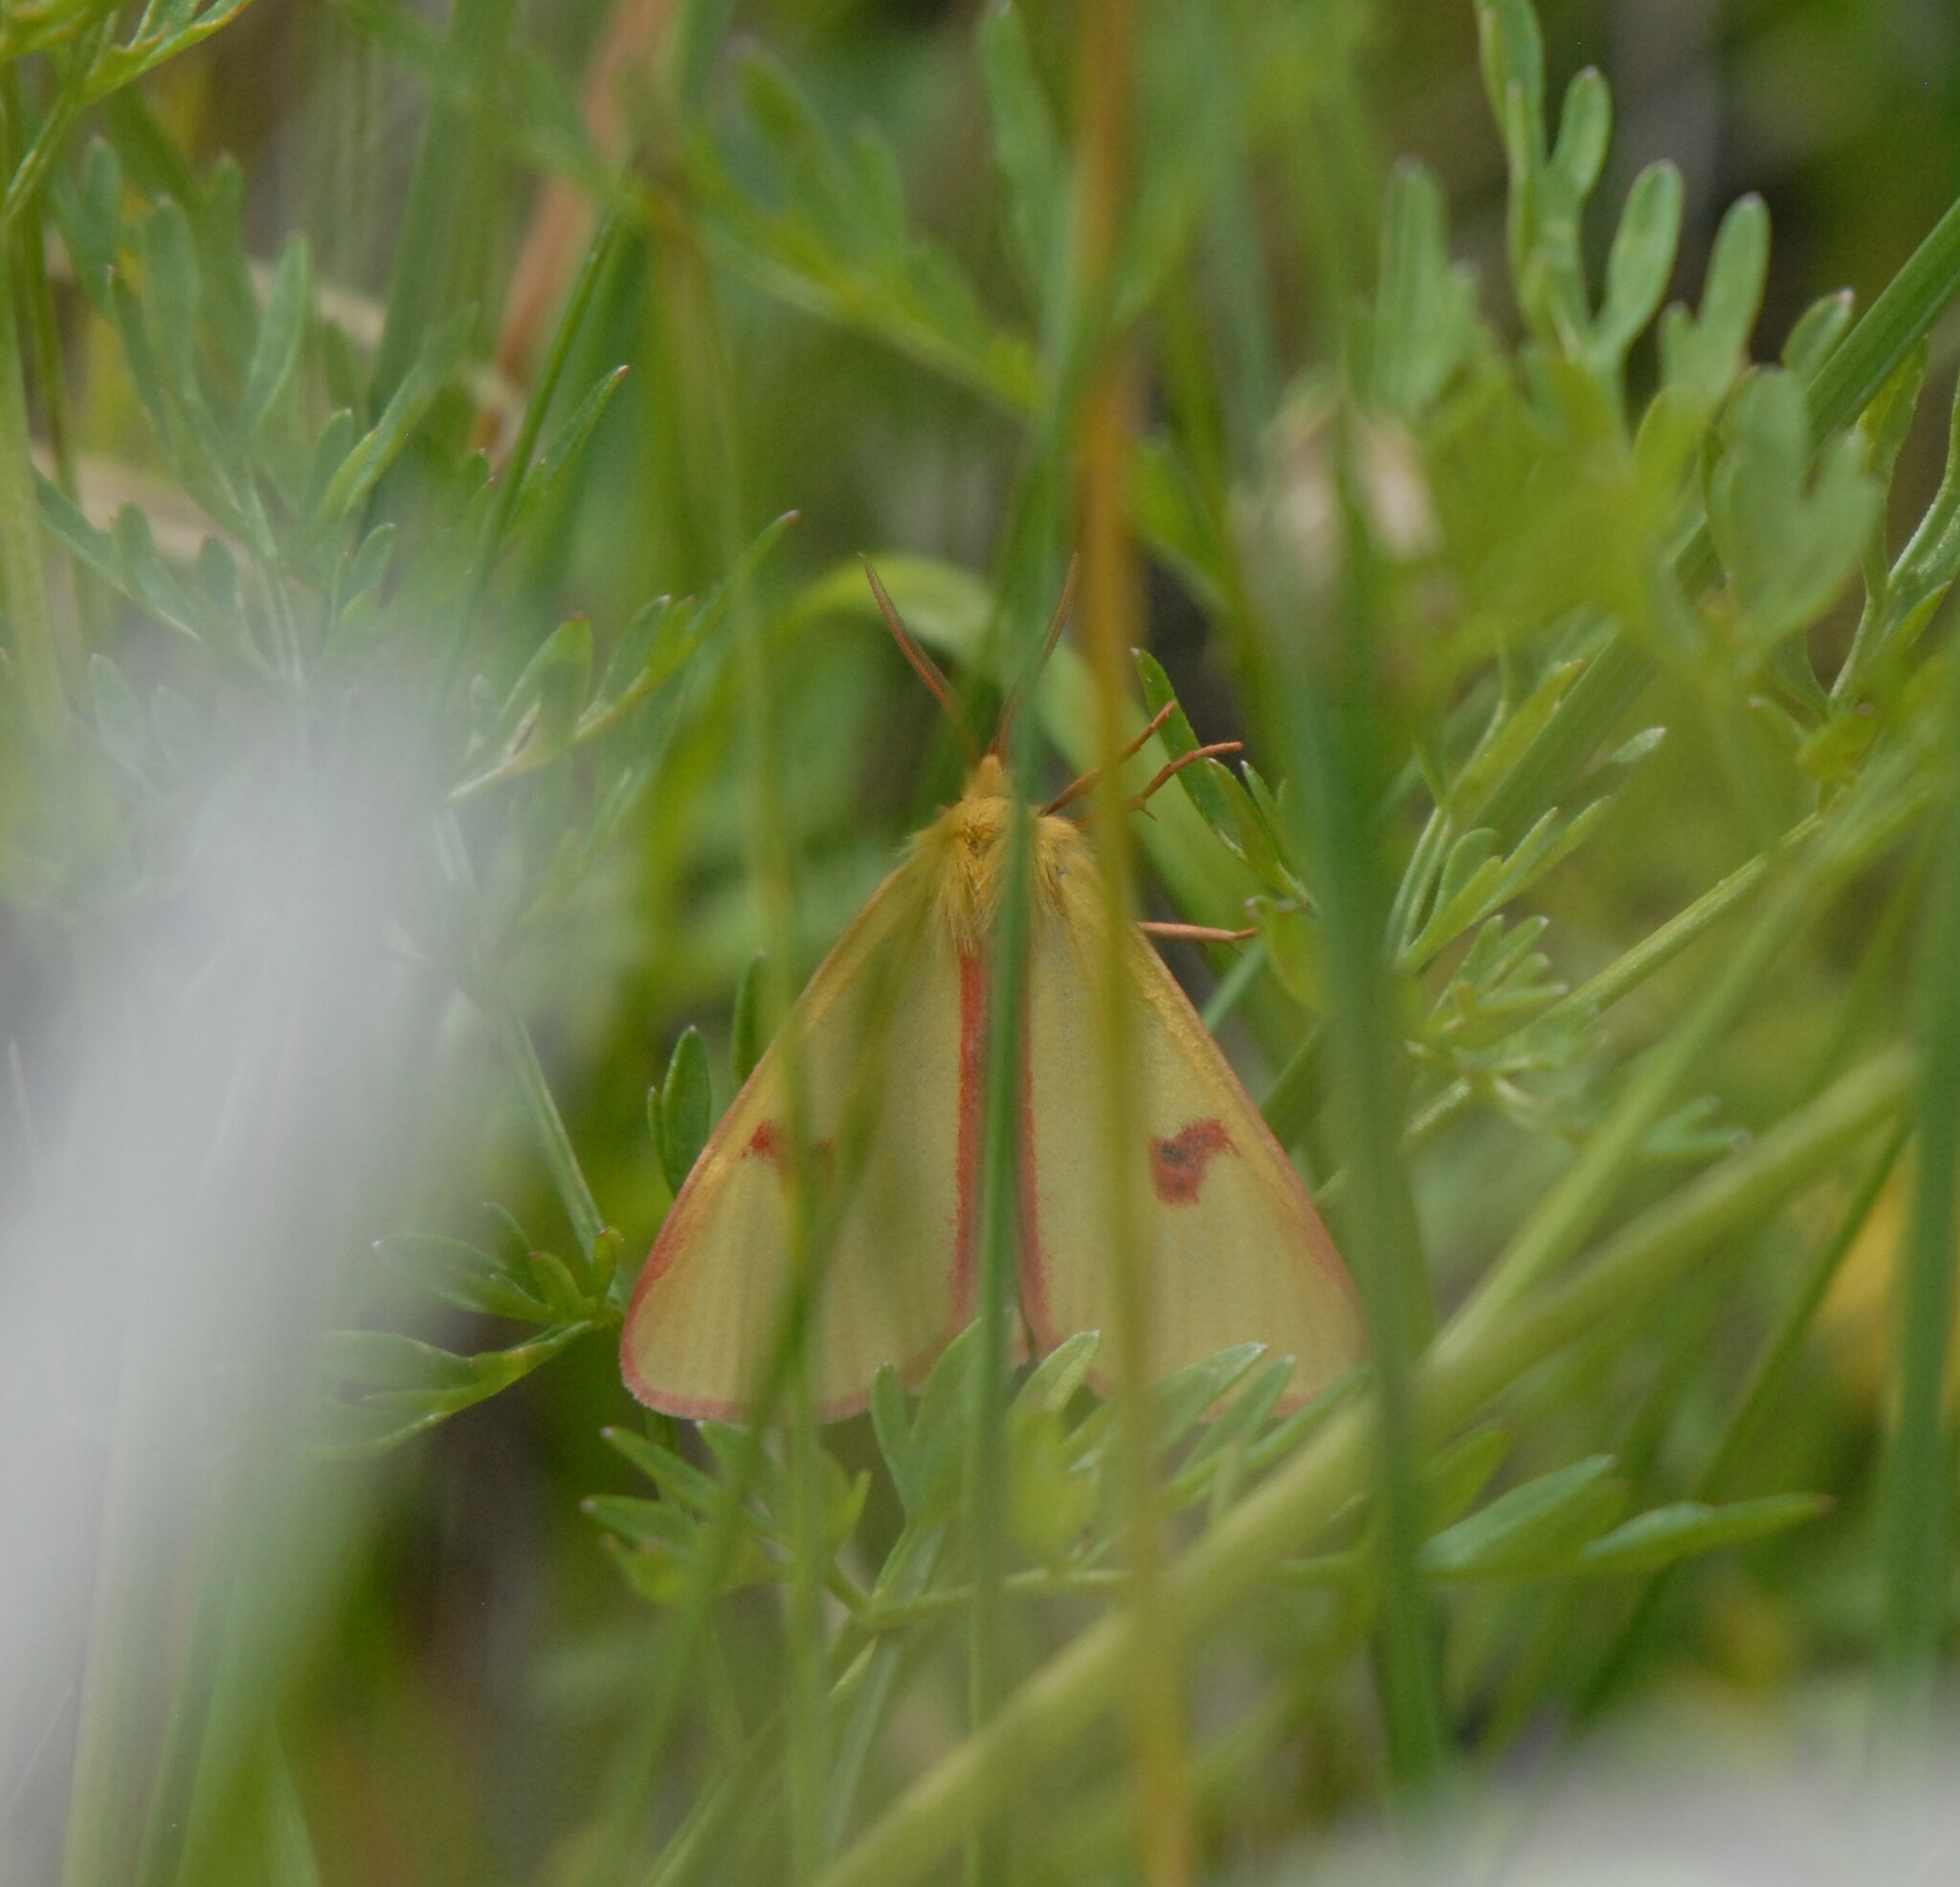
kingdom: Animalia
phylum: Arthropoda
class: Insecta
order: Lepidoptera
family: Erebidae
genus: Diacrisia
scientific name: Diacrisia sannio
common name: Clouded buff
